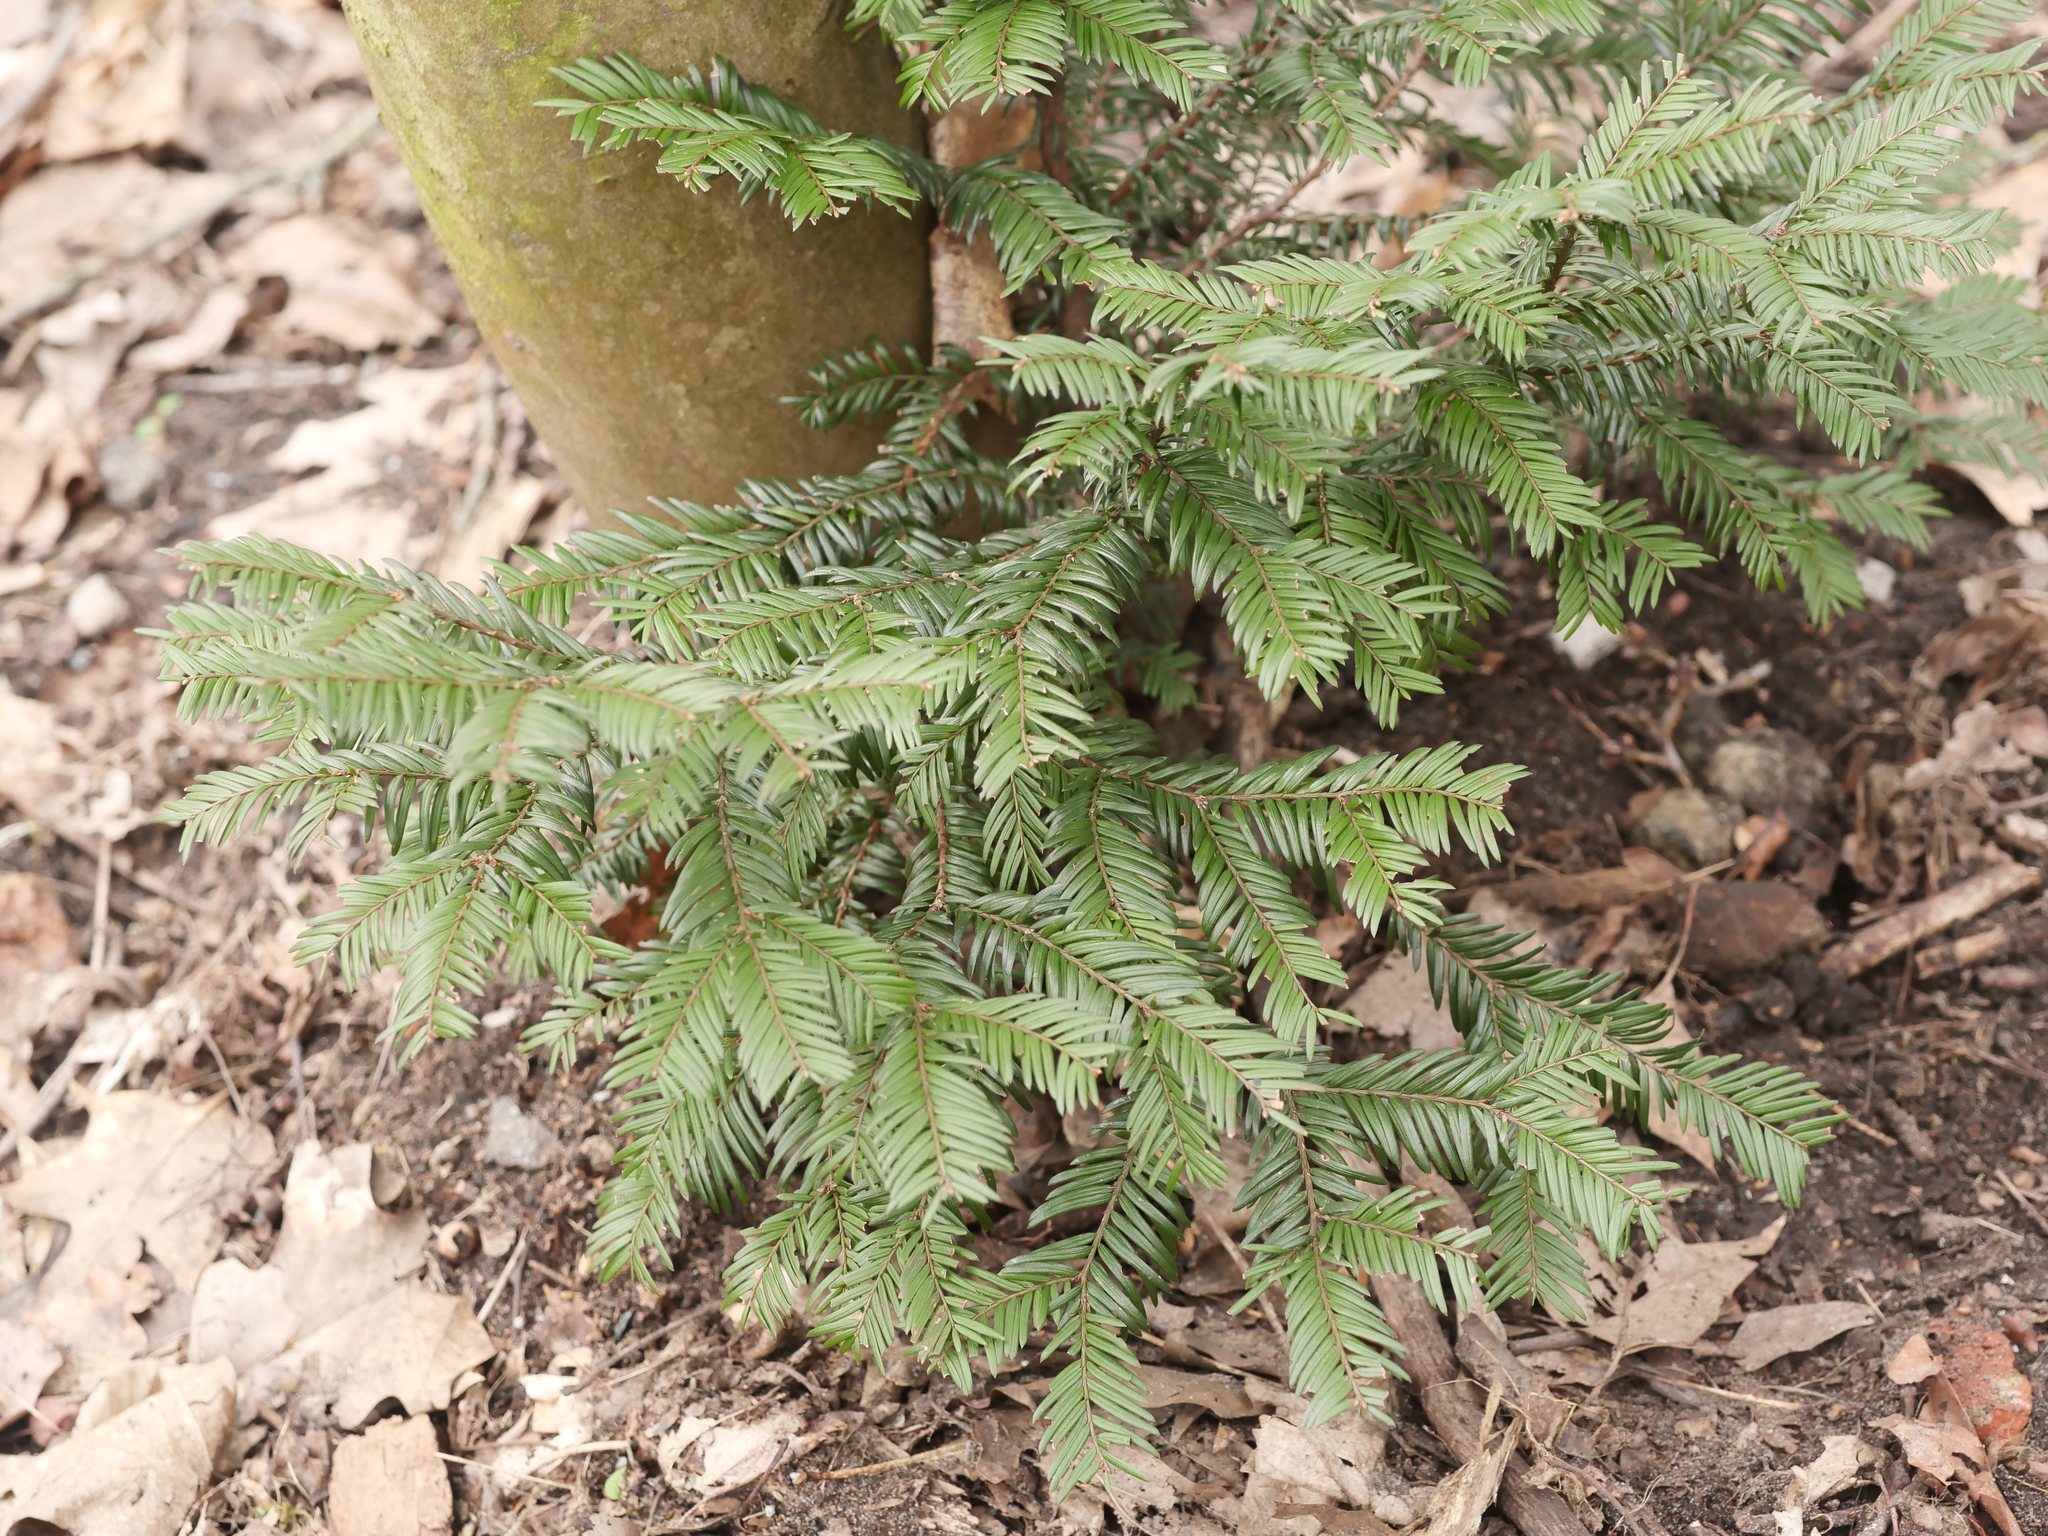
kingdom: Plantae
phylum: Tracheophyta
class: Pinopsida
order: Pinales
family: Taxaceae
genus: Taxus
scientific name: Taxus baccata
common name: Yew
